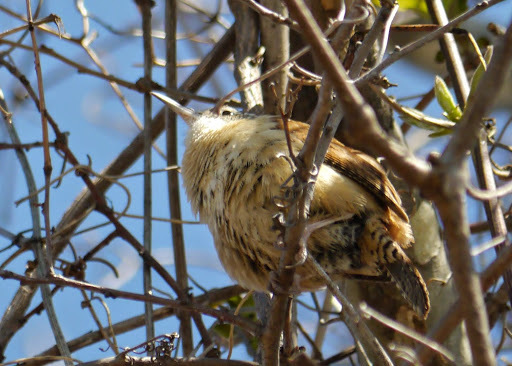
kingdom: Animalia
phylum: Chordata
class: Aves
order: Passeriformes
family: Troglodytidae
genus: Thryothorus
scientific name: Thryothorus ludovicianus
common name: Carolina wren
